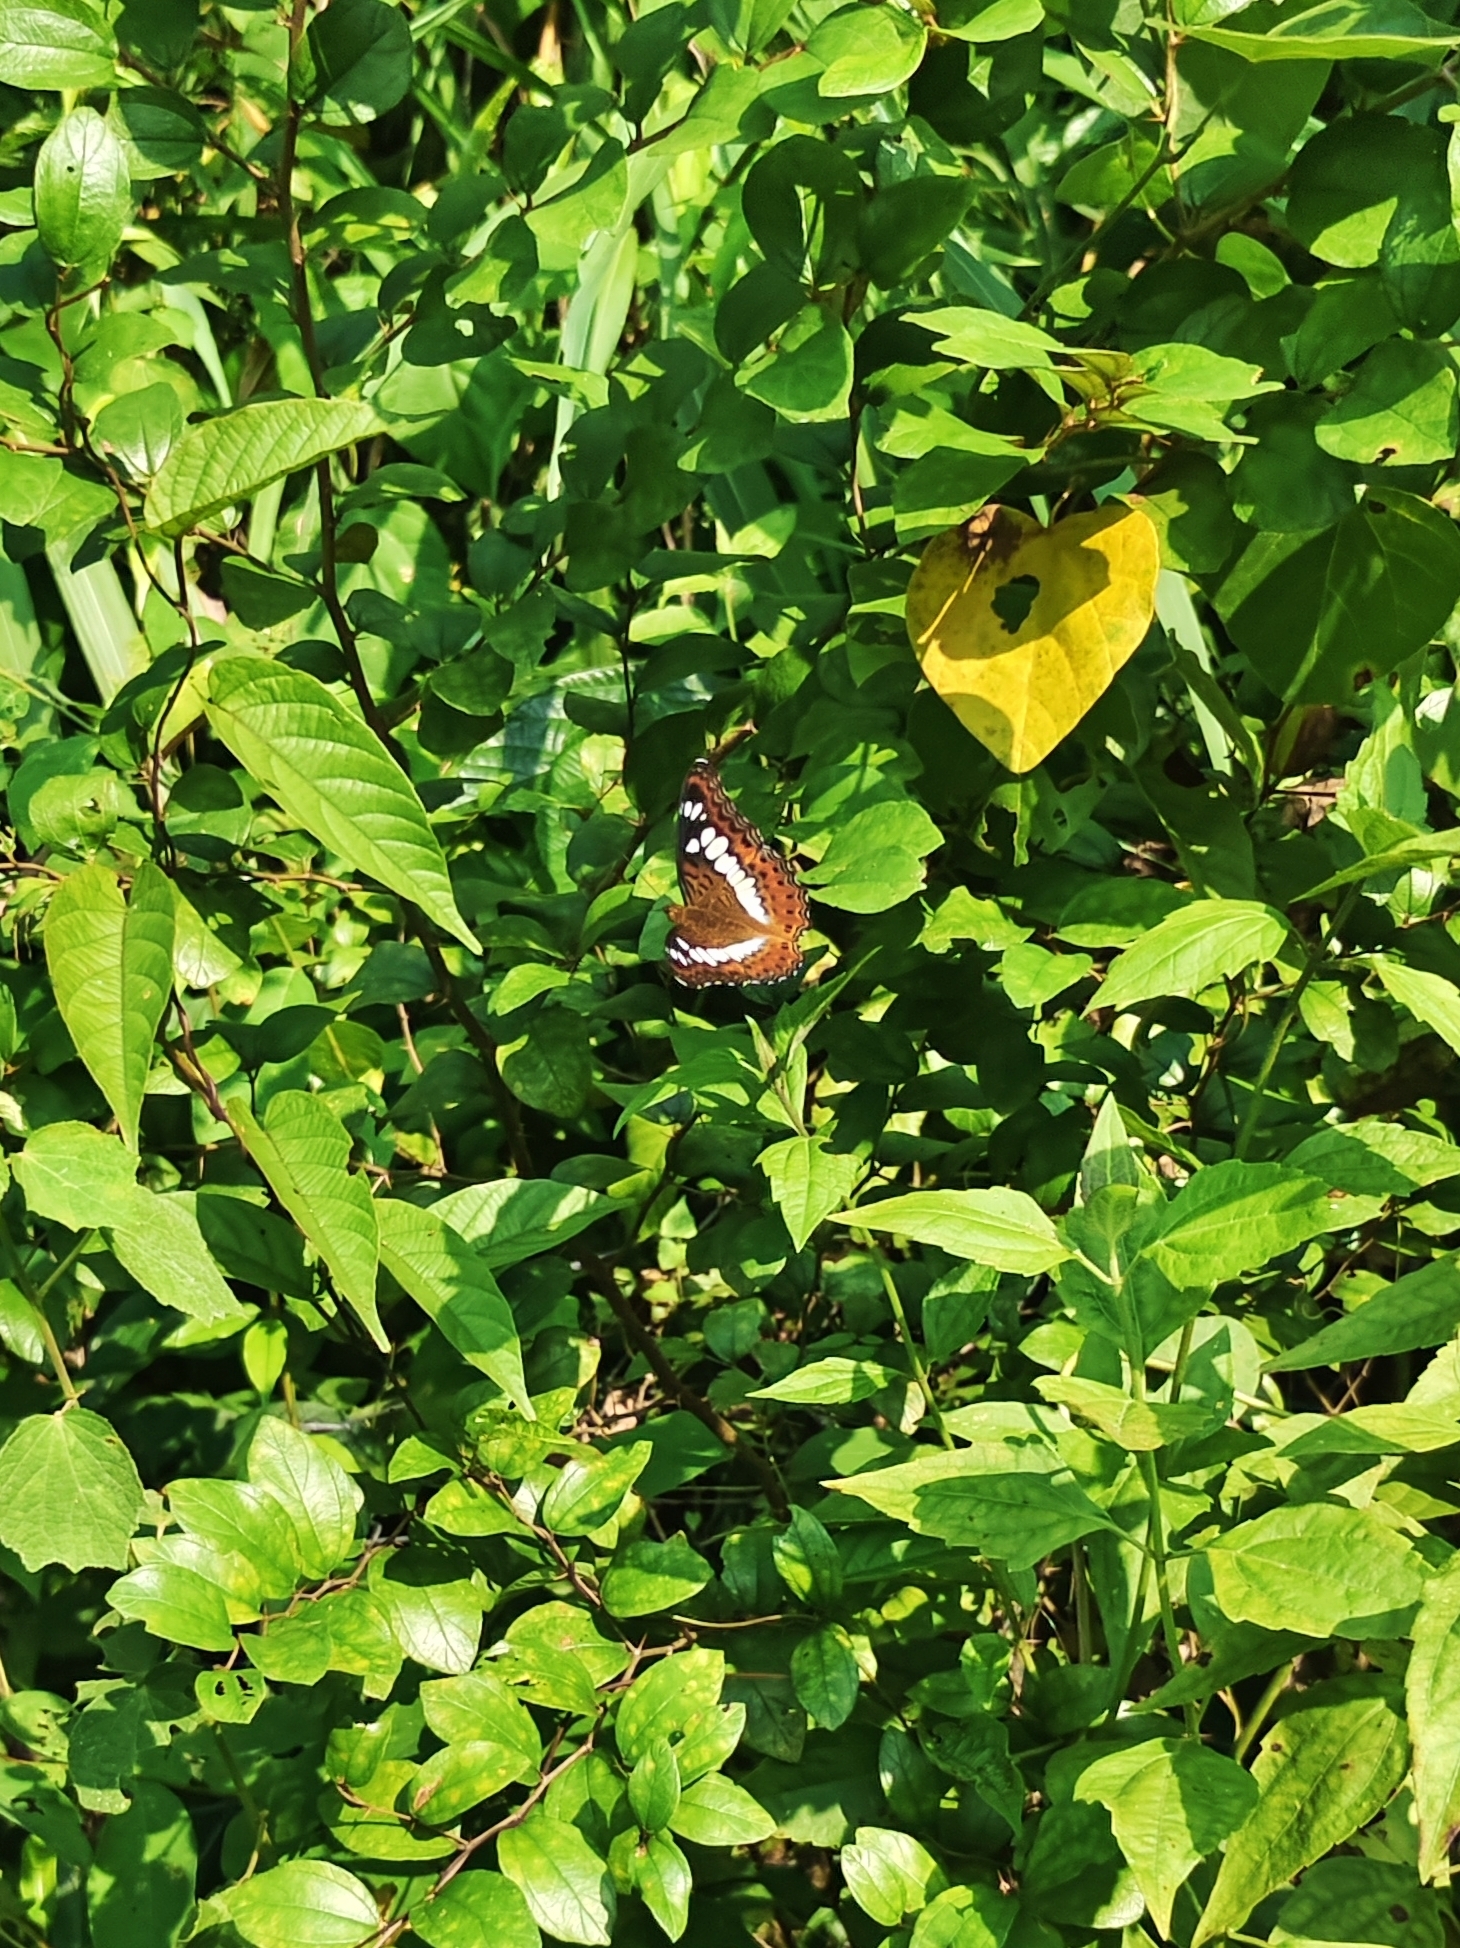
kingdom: Animalia
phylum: Arthropoda
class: Insecta
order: Lepidoptera
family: Nymphalidae
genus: Limenitis
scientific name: Limenitis Moduza procris
